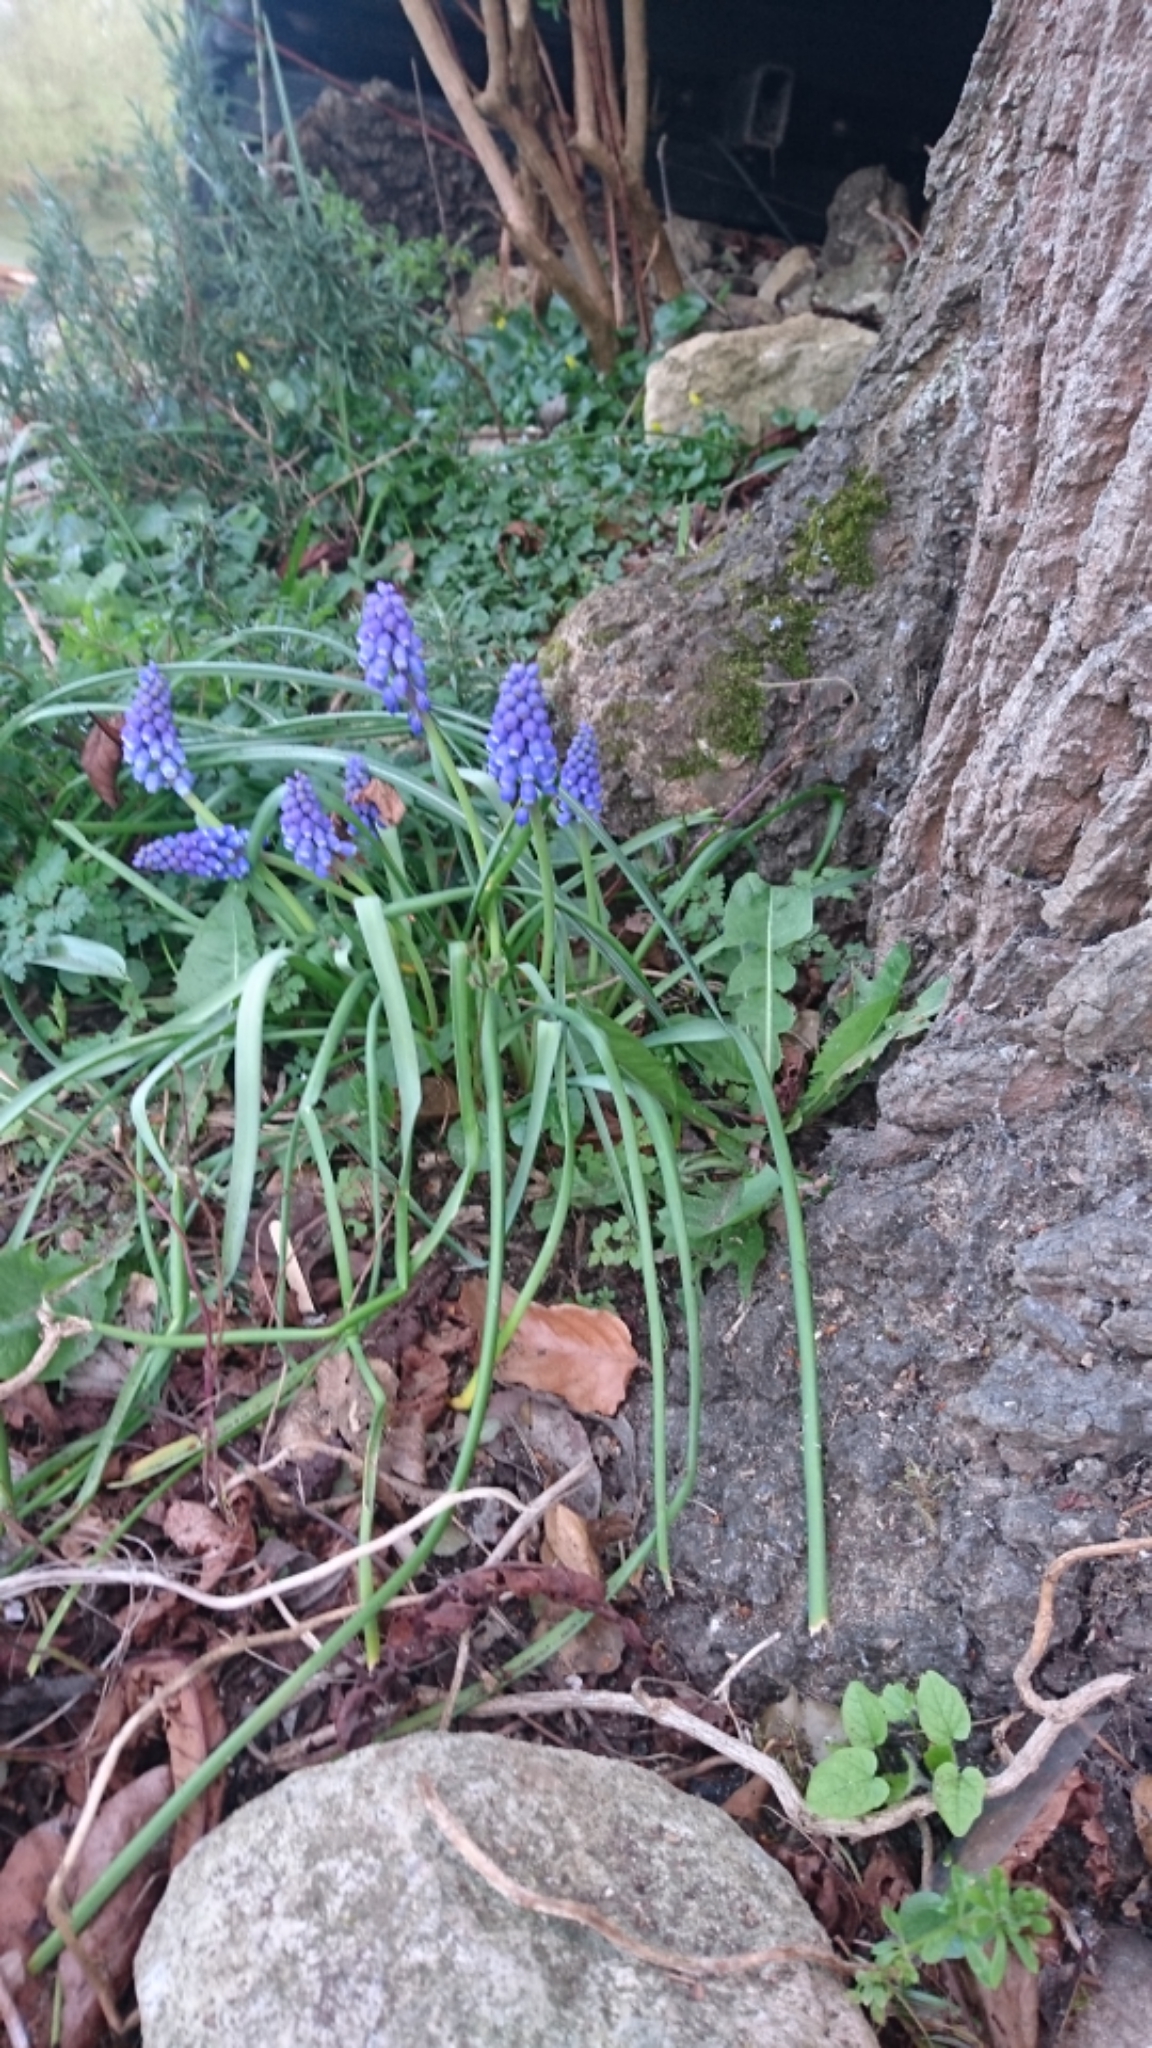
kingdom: Plantae
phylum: Tracheophyta
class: Liliopsida
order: Asparagales
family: Asparagaceae
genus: Muscari
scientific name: Muscari armeniacum
